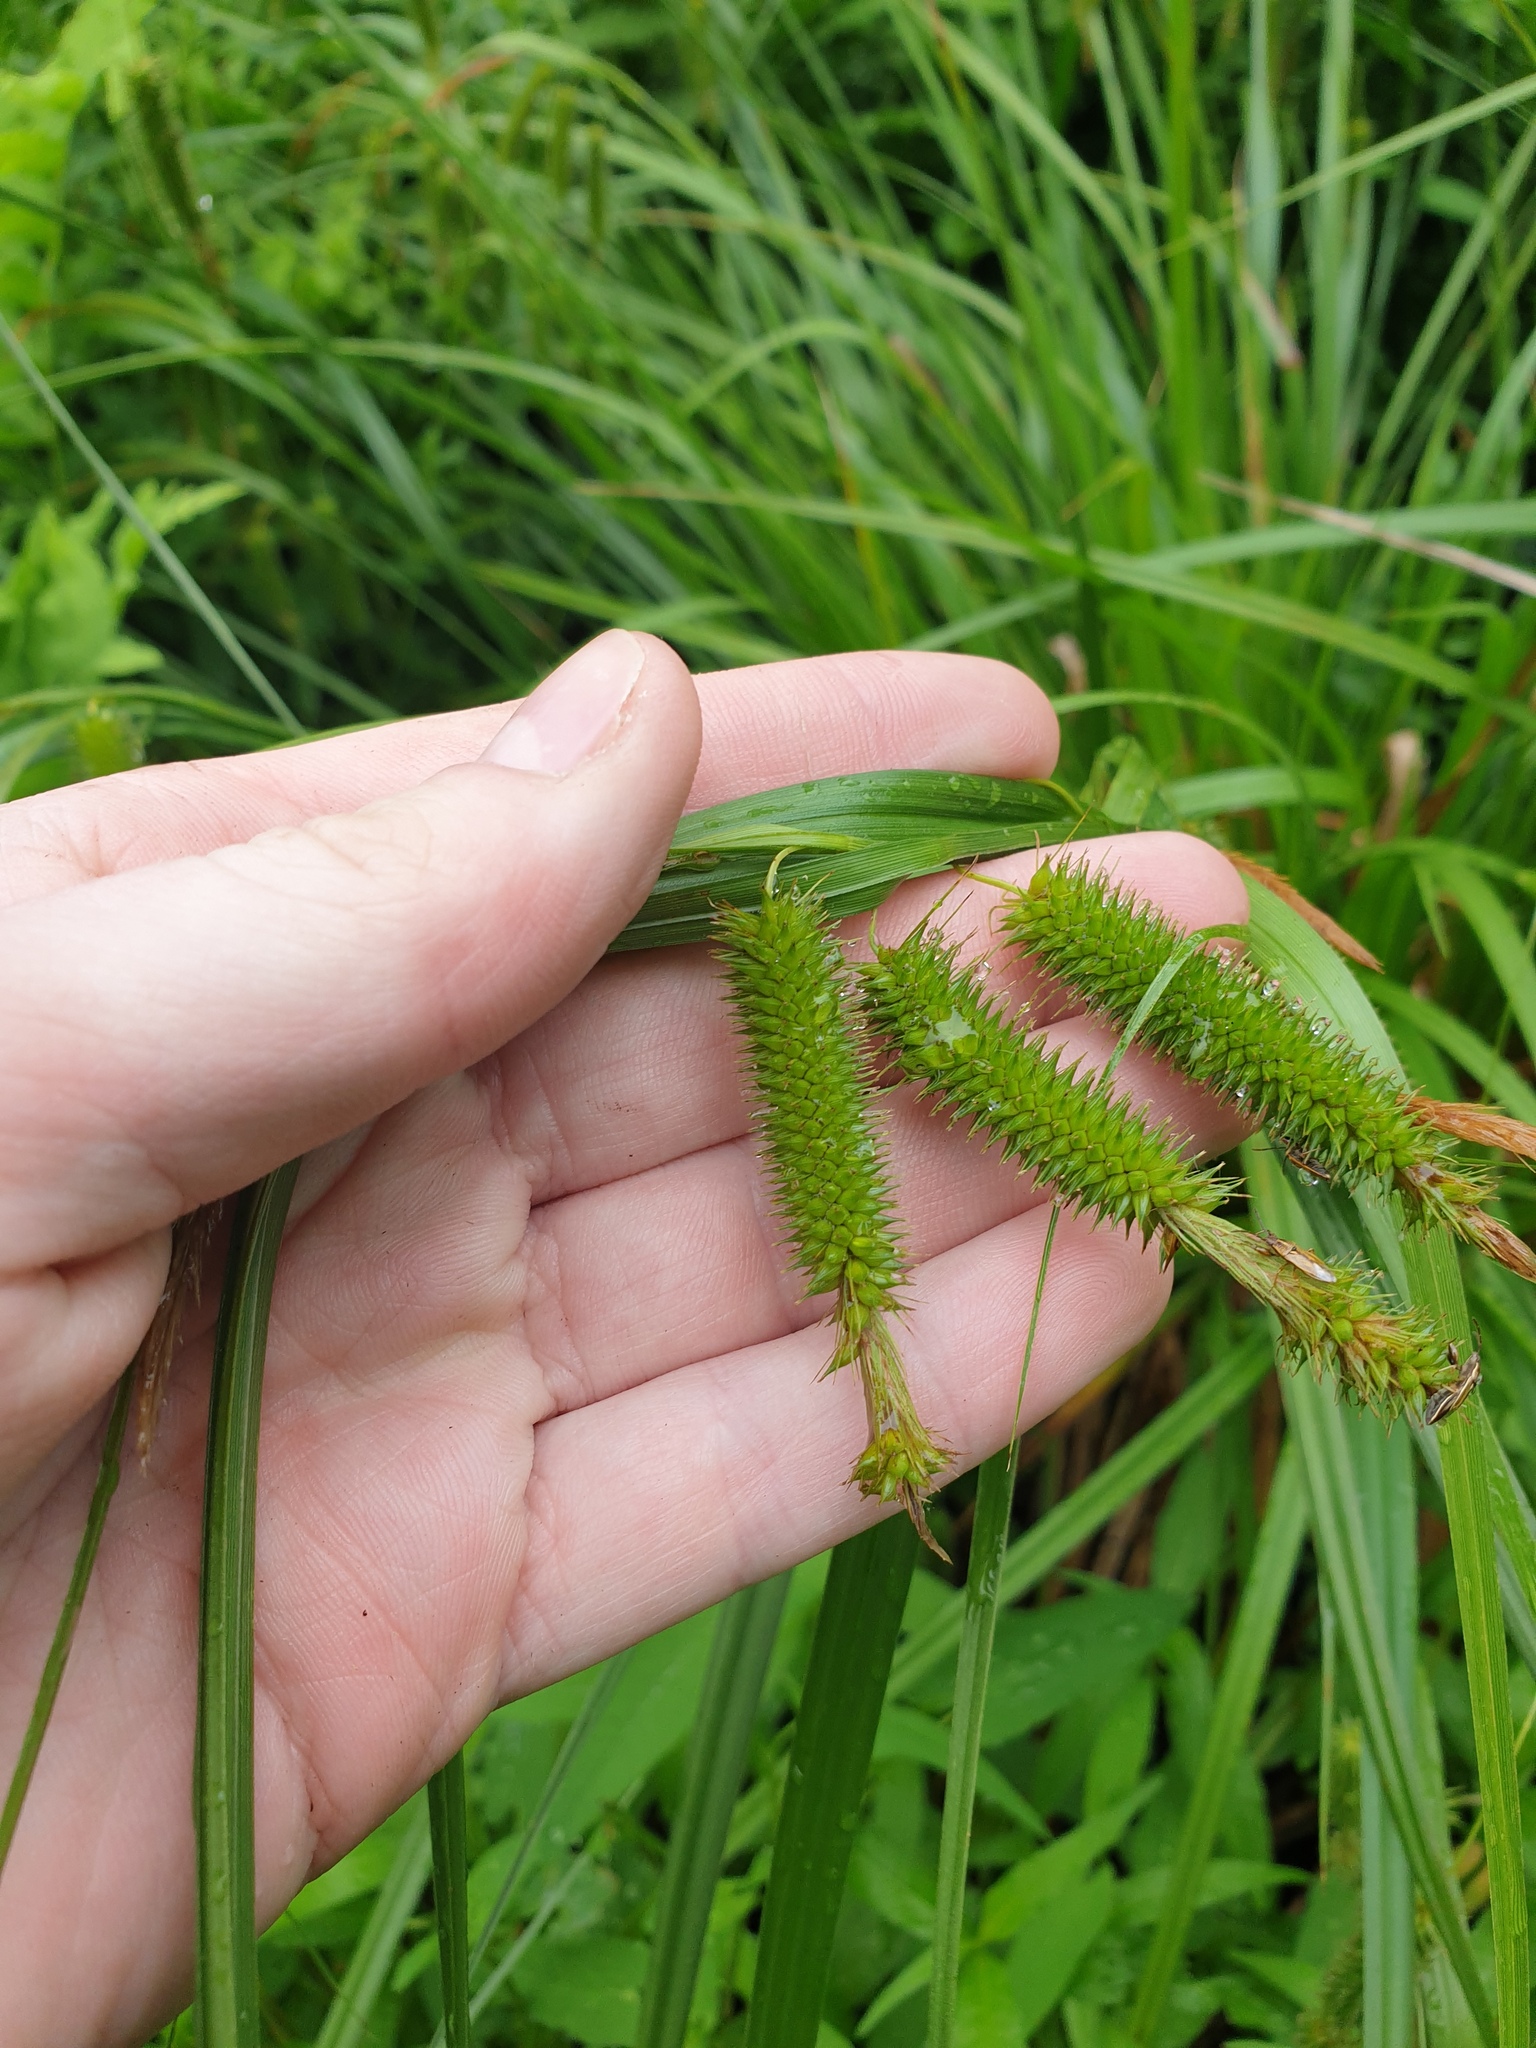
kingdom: Plantae
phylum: Tracheophyta
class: Liliopsida
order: Poales
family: Cyperaceae
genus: Carex
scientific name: Carex pseudocyperus
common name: Cyperus sedge
